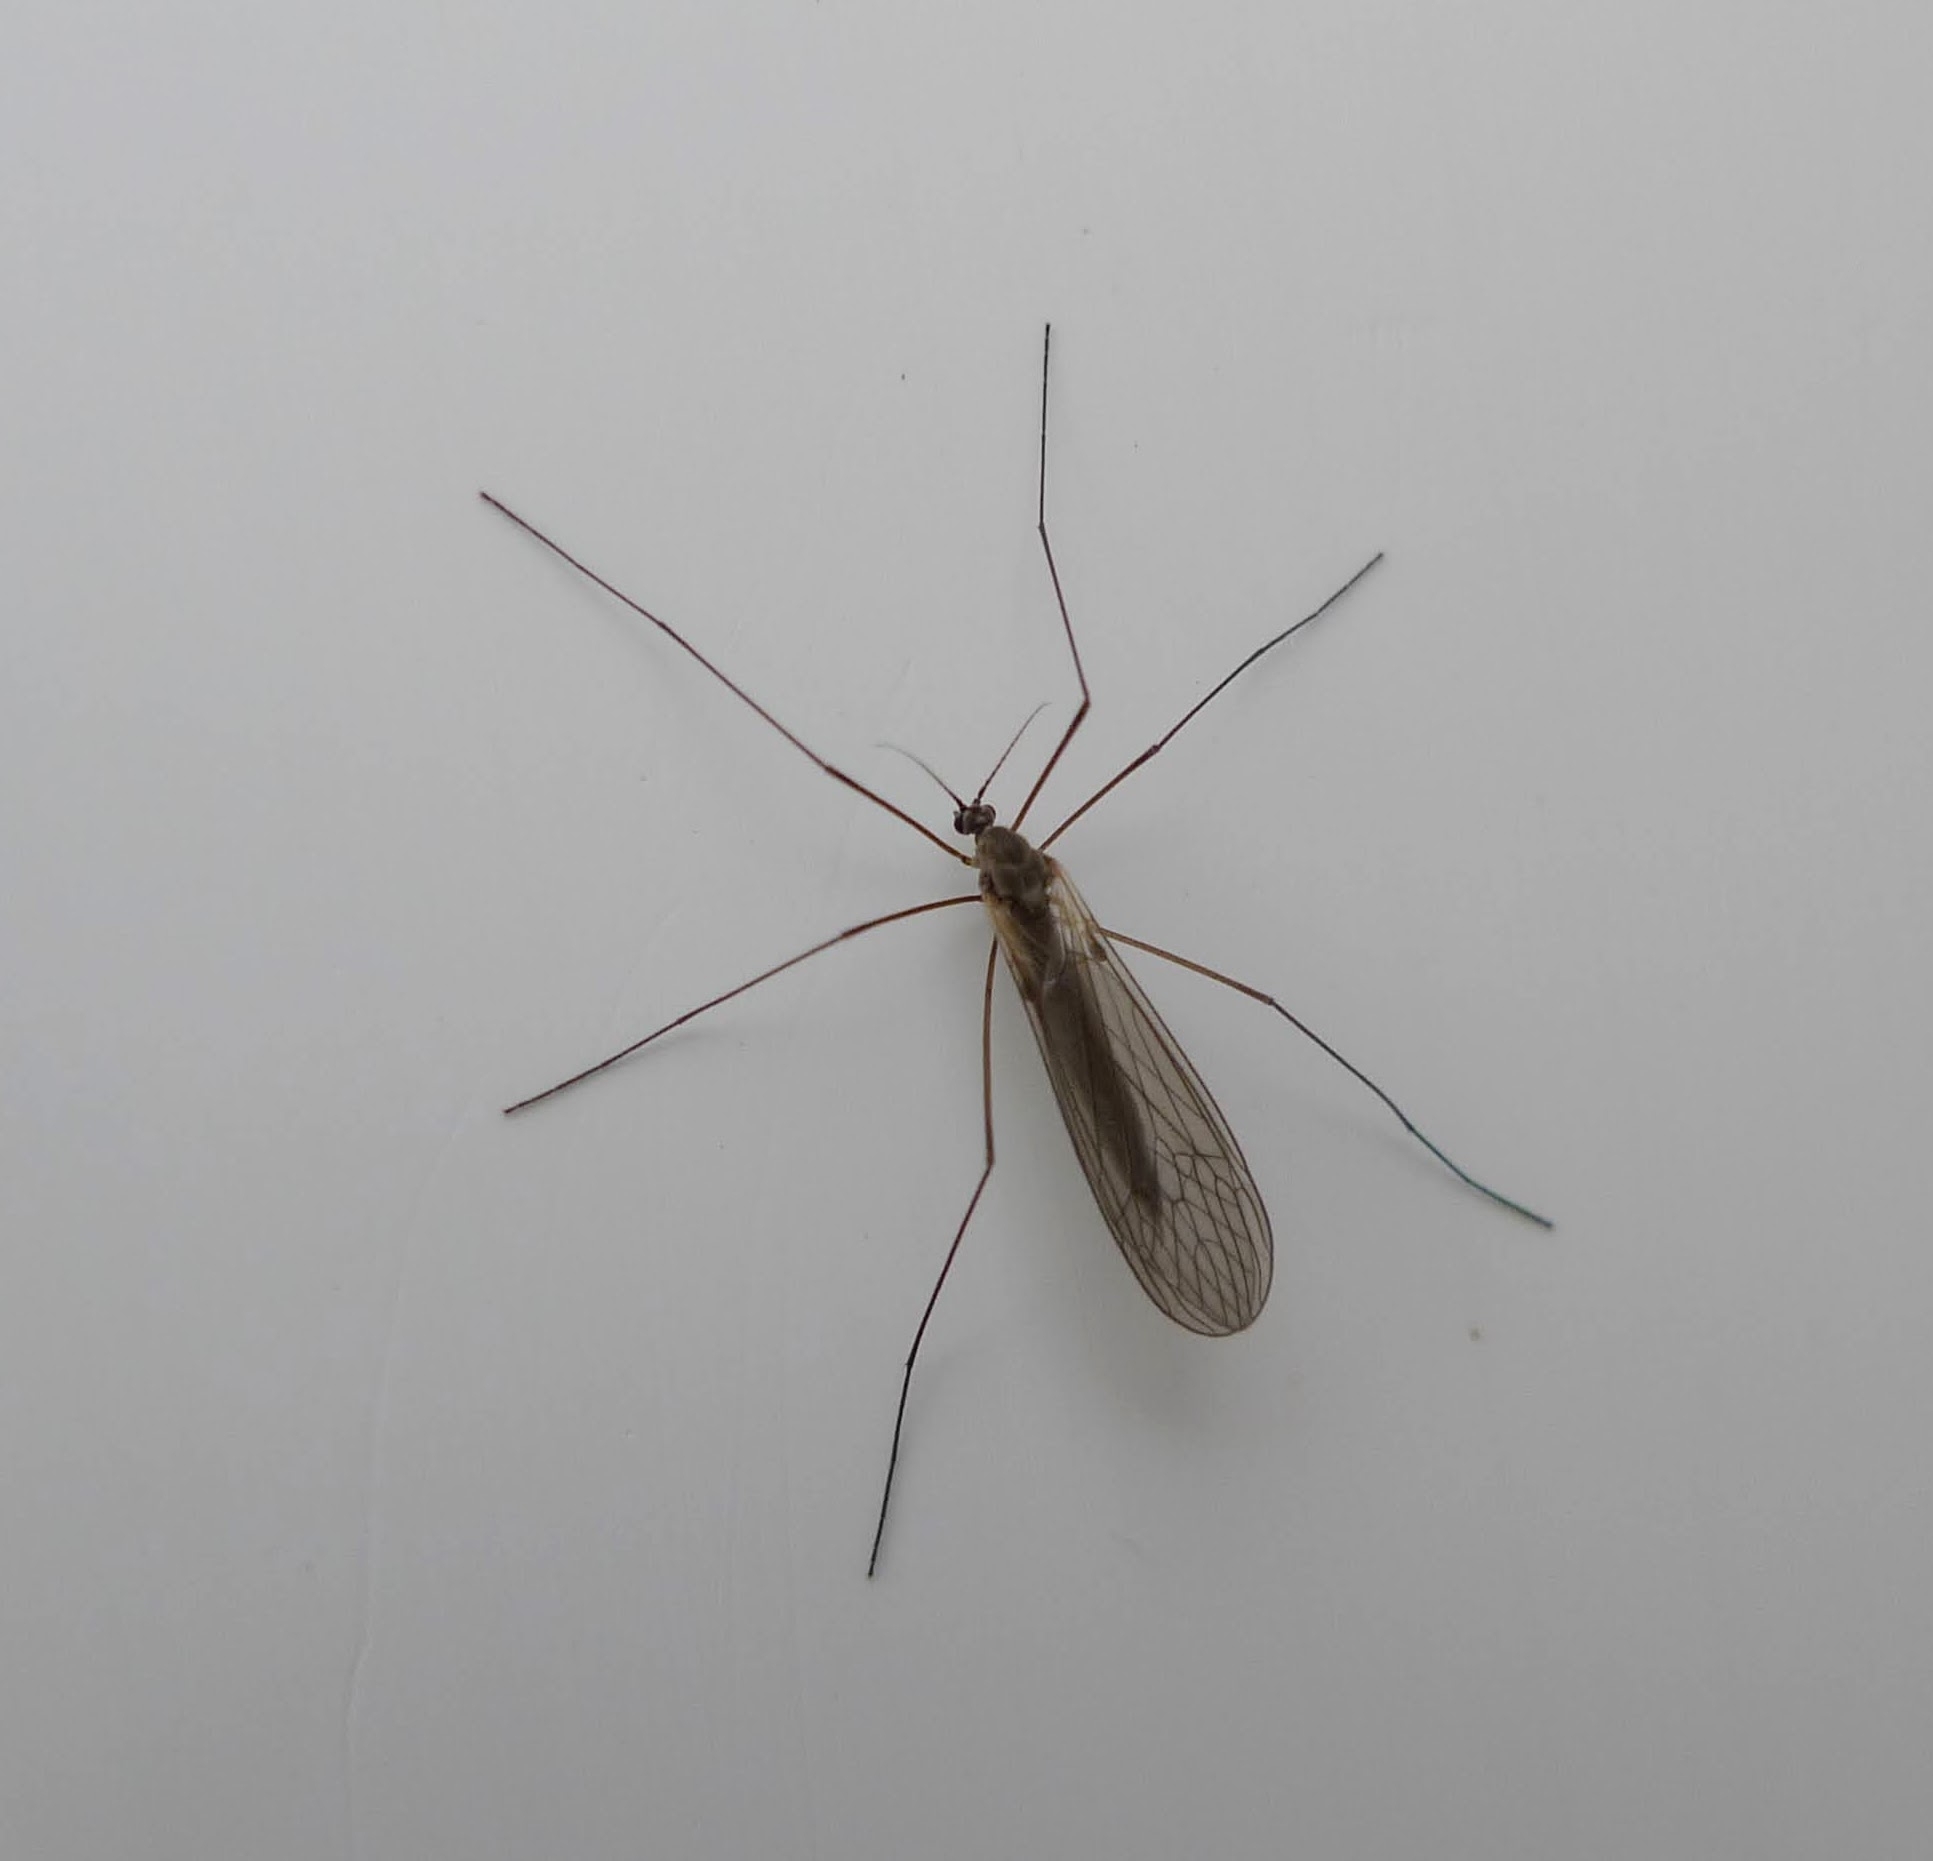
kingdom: Animalia
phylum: Arthropoda
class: Insecta
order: Diptera
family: Trichoceridae
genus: Trichocera
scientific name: Trichocera annulata
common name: Winter gnat
